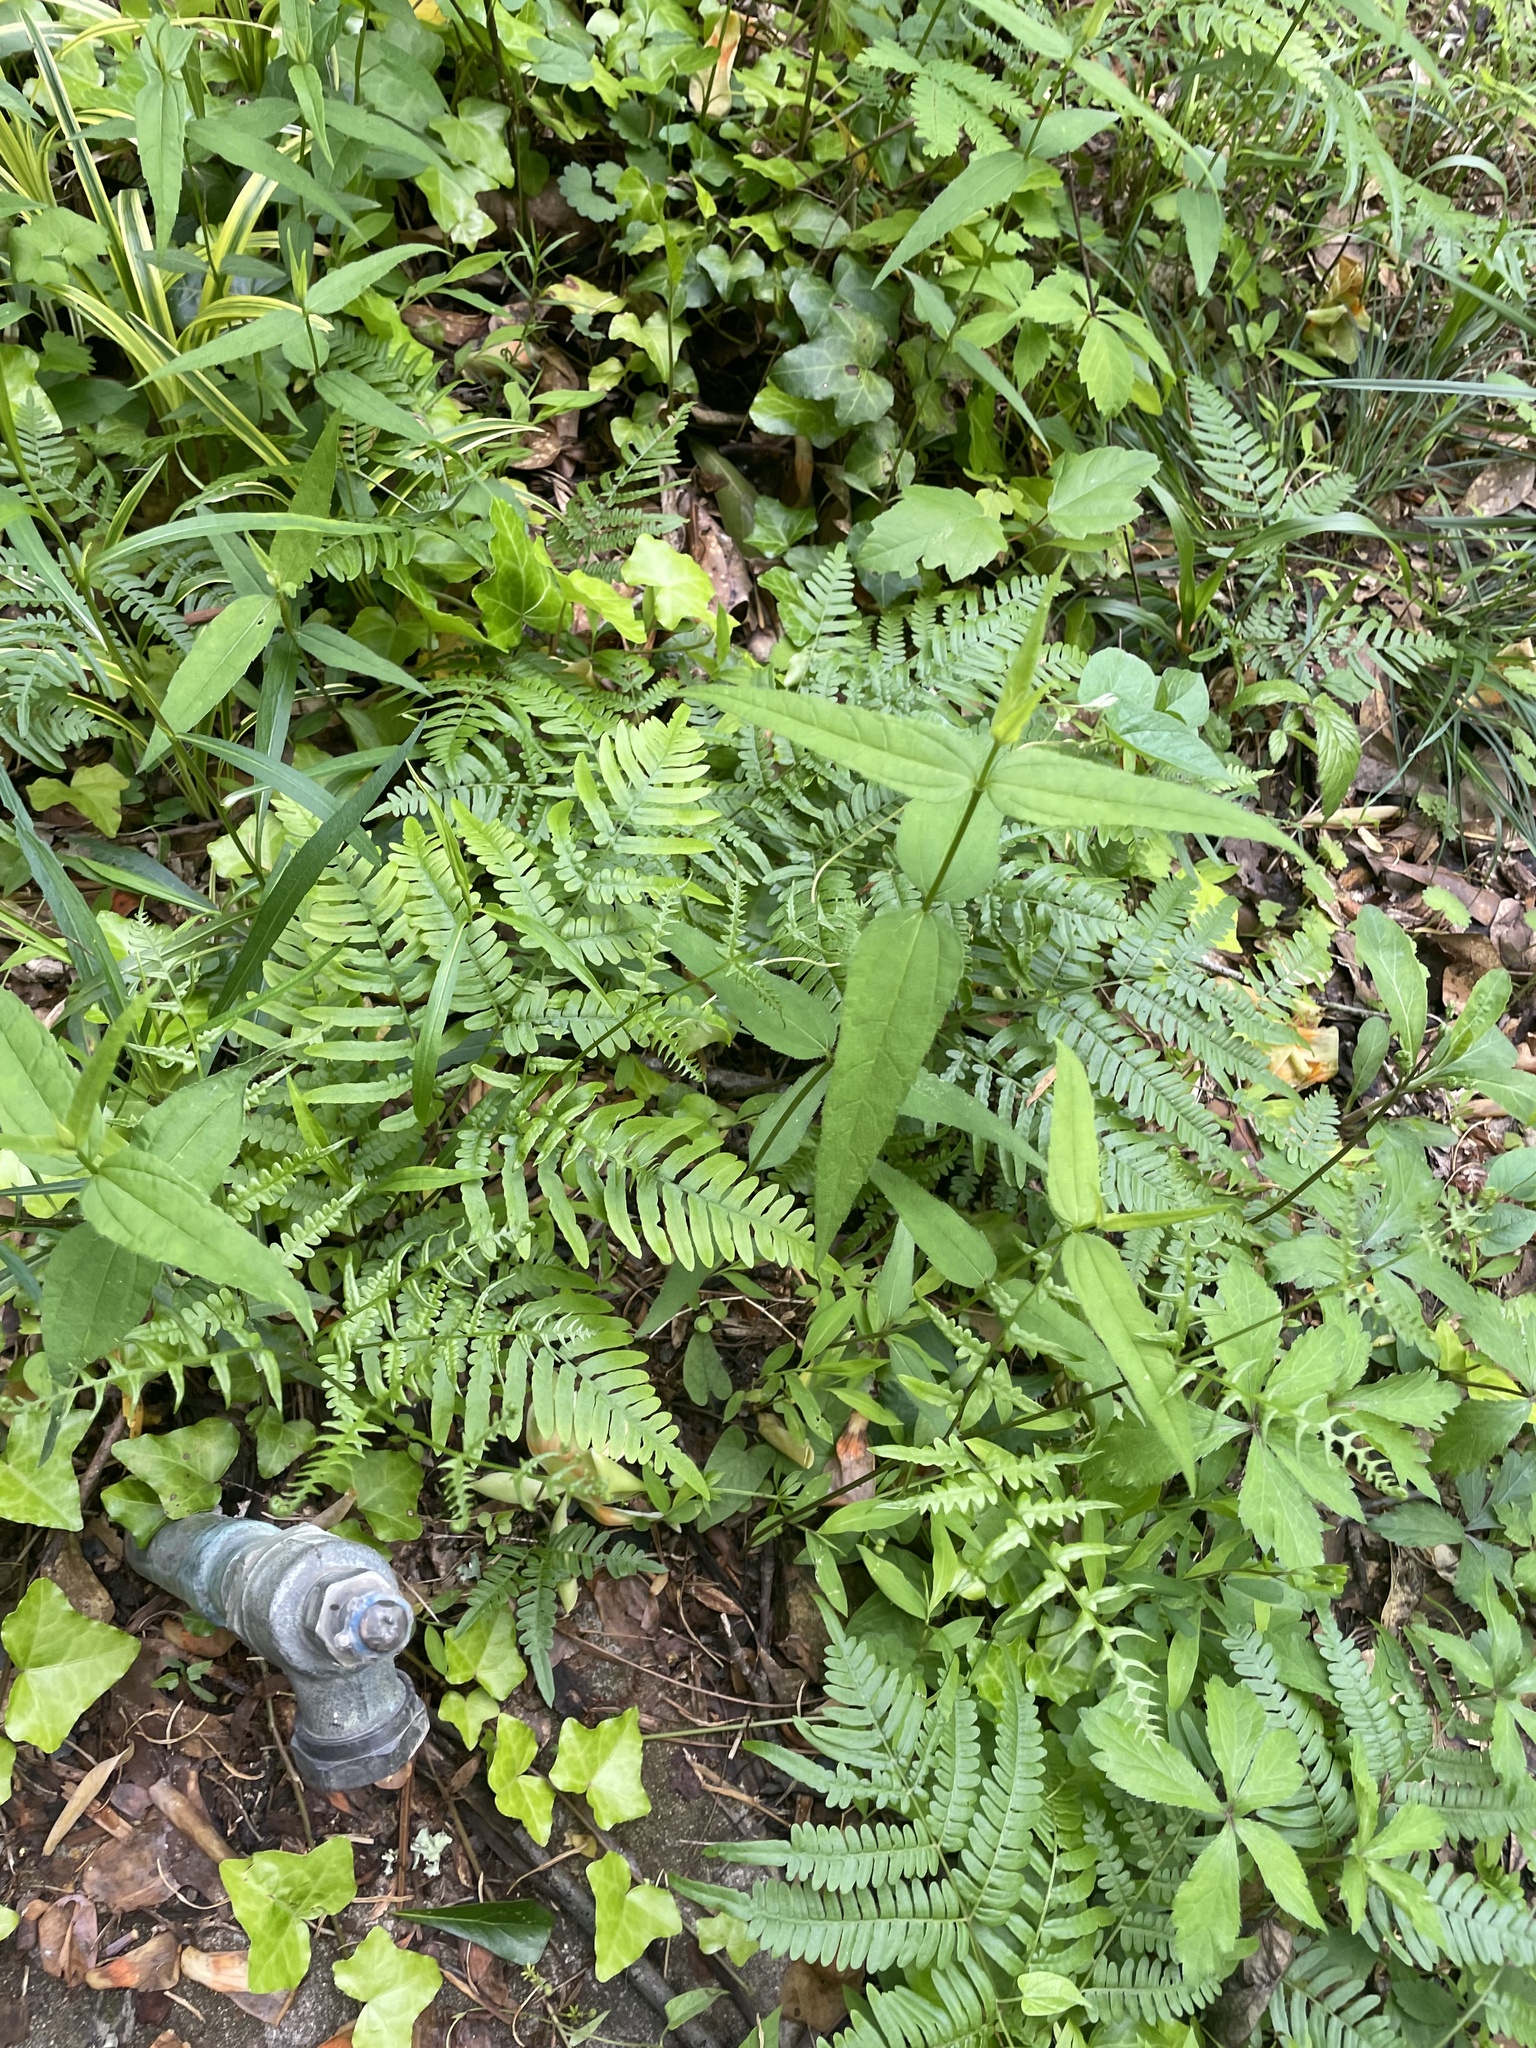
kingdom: Plantae
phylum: Tracheophyta
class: Polypodiopsida
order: Polypodiales
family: Dennstaedtiaceae
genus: Pteridium
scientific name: Pteridium
